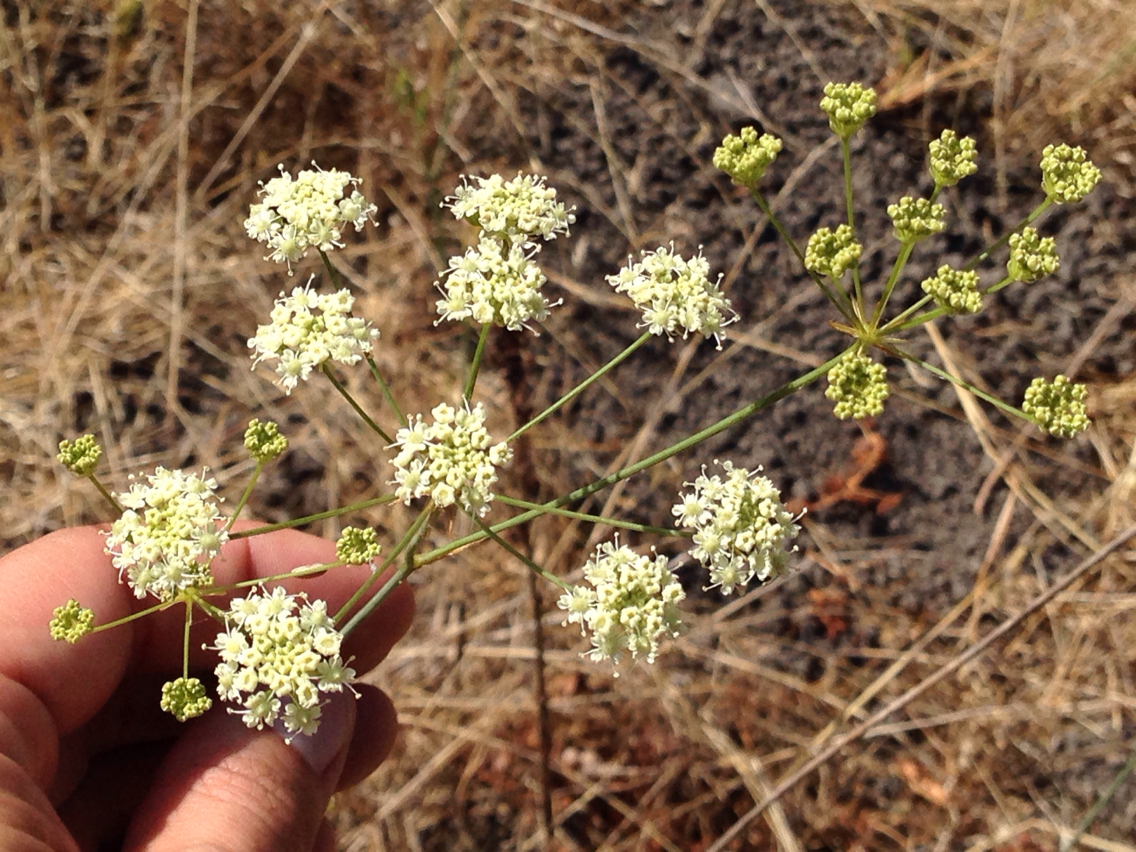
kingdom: Plantae
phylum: Tracheophyta
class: Magnoliopsida
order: Apiales
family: Apiaceae
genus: Perideridia
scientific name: Perideridia kelloggii
